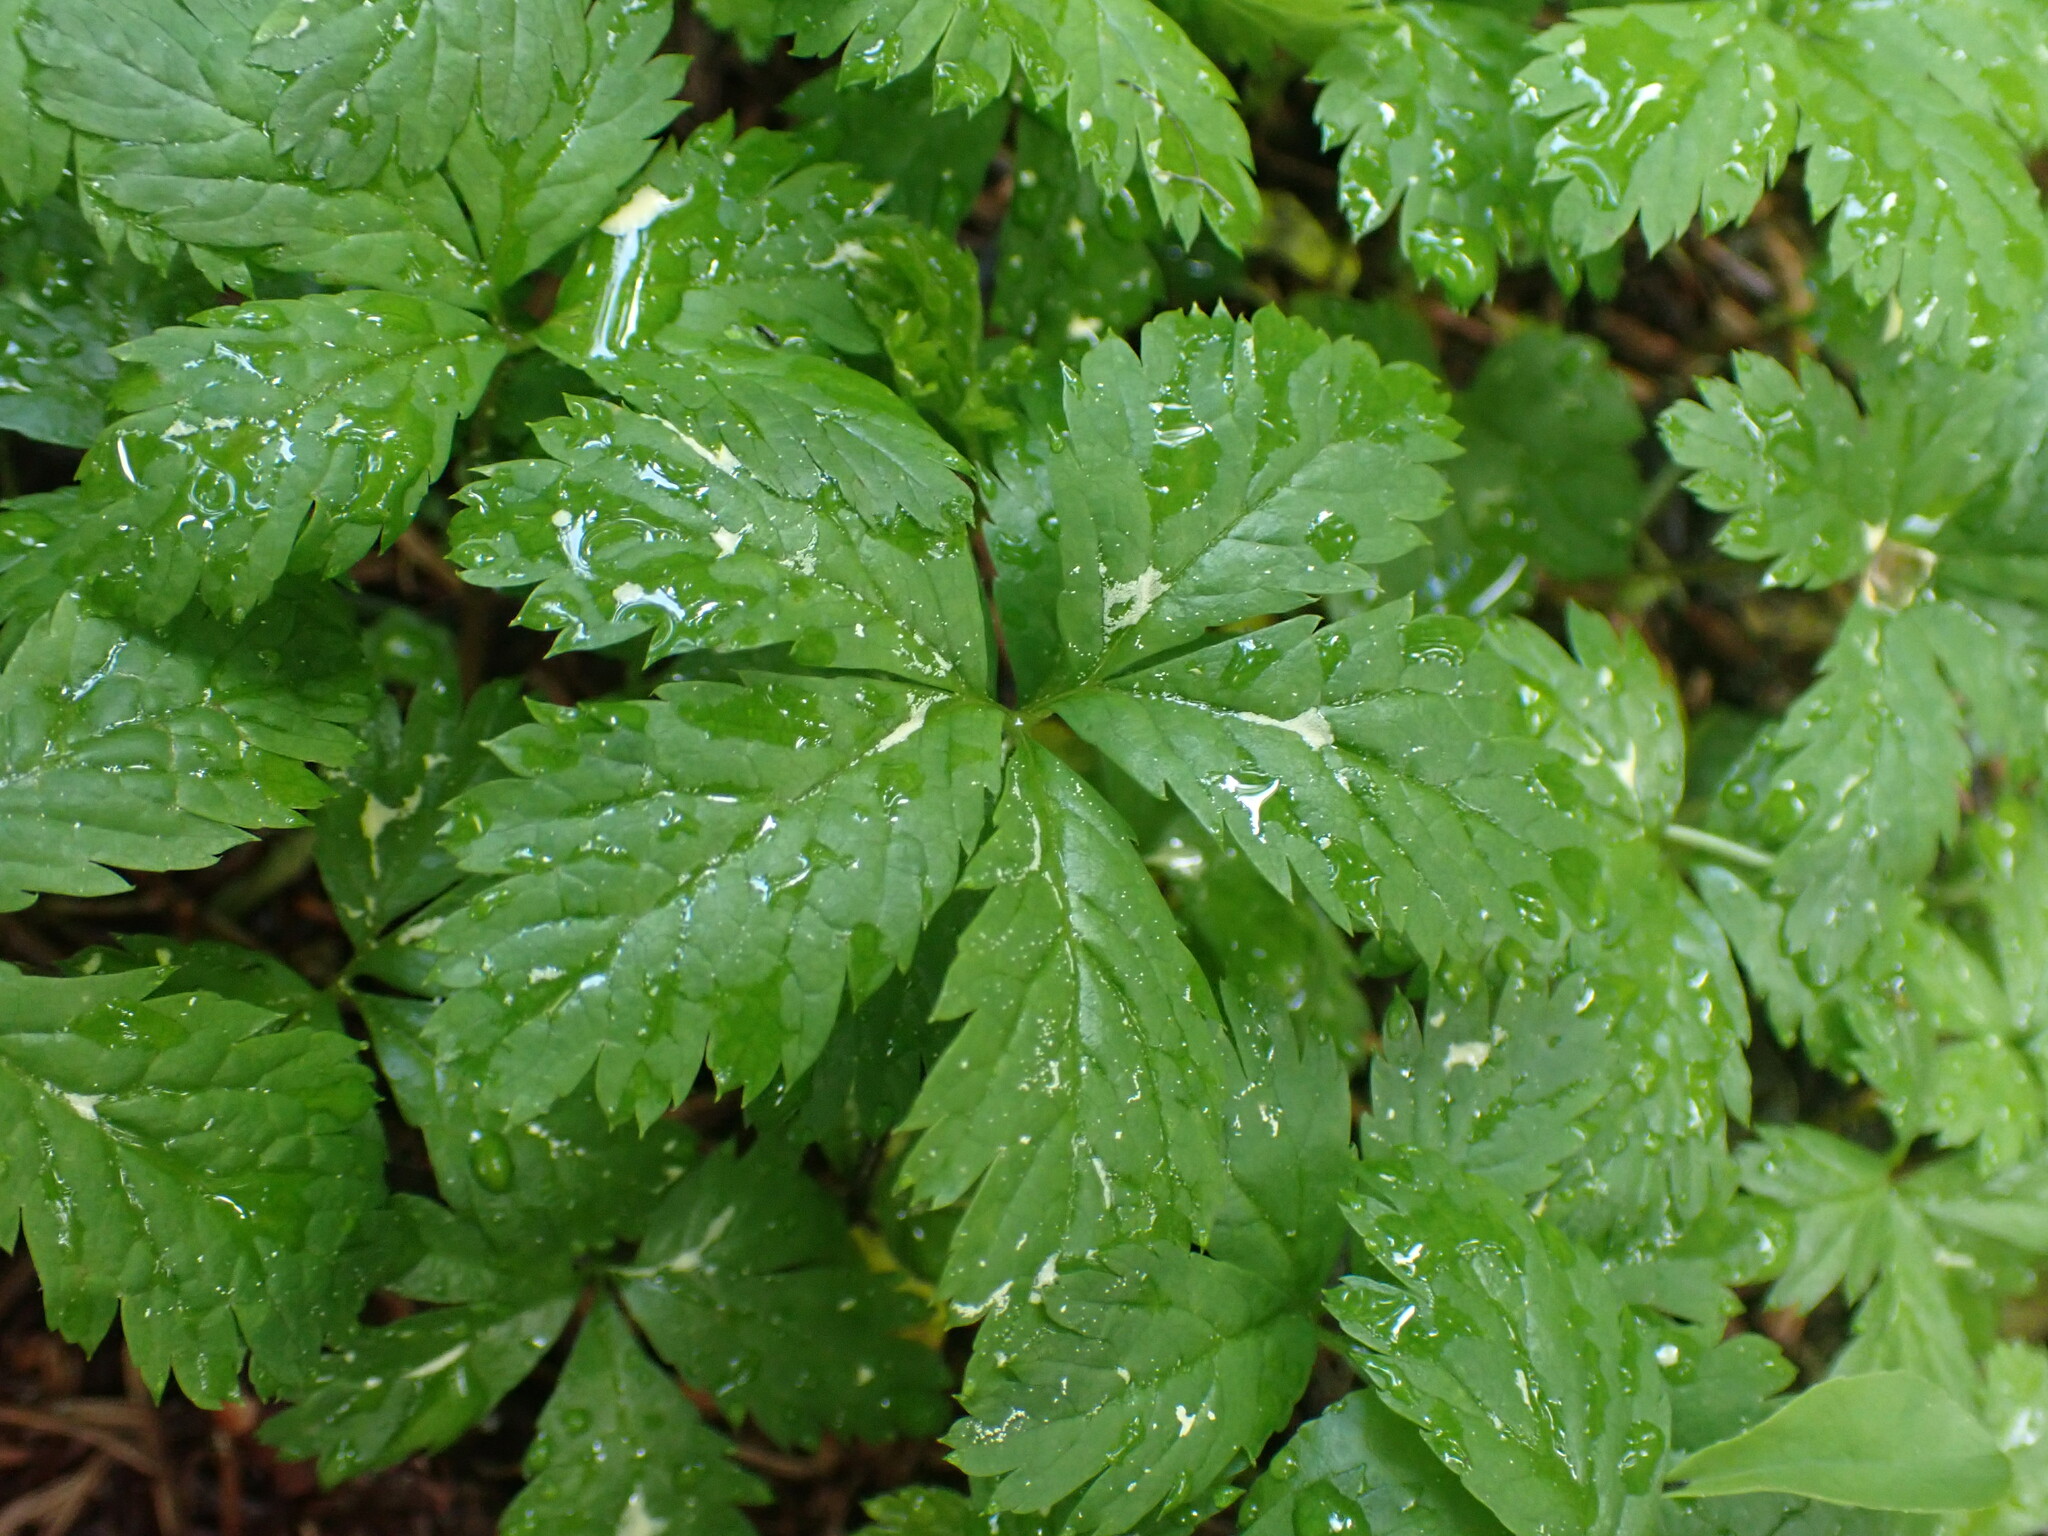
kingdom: Plantae
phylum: Tracheophyta
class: Magnoliopsida
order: Rosales
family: Rosaceae
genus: Rubus
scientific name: Rubus pedatus
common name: Creeping raspberry
